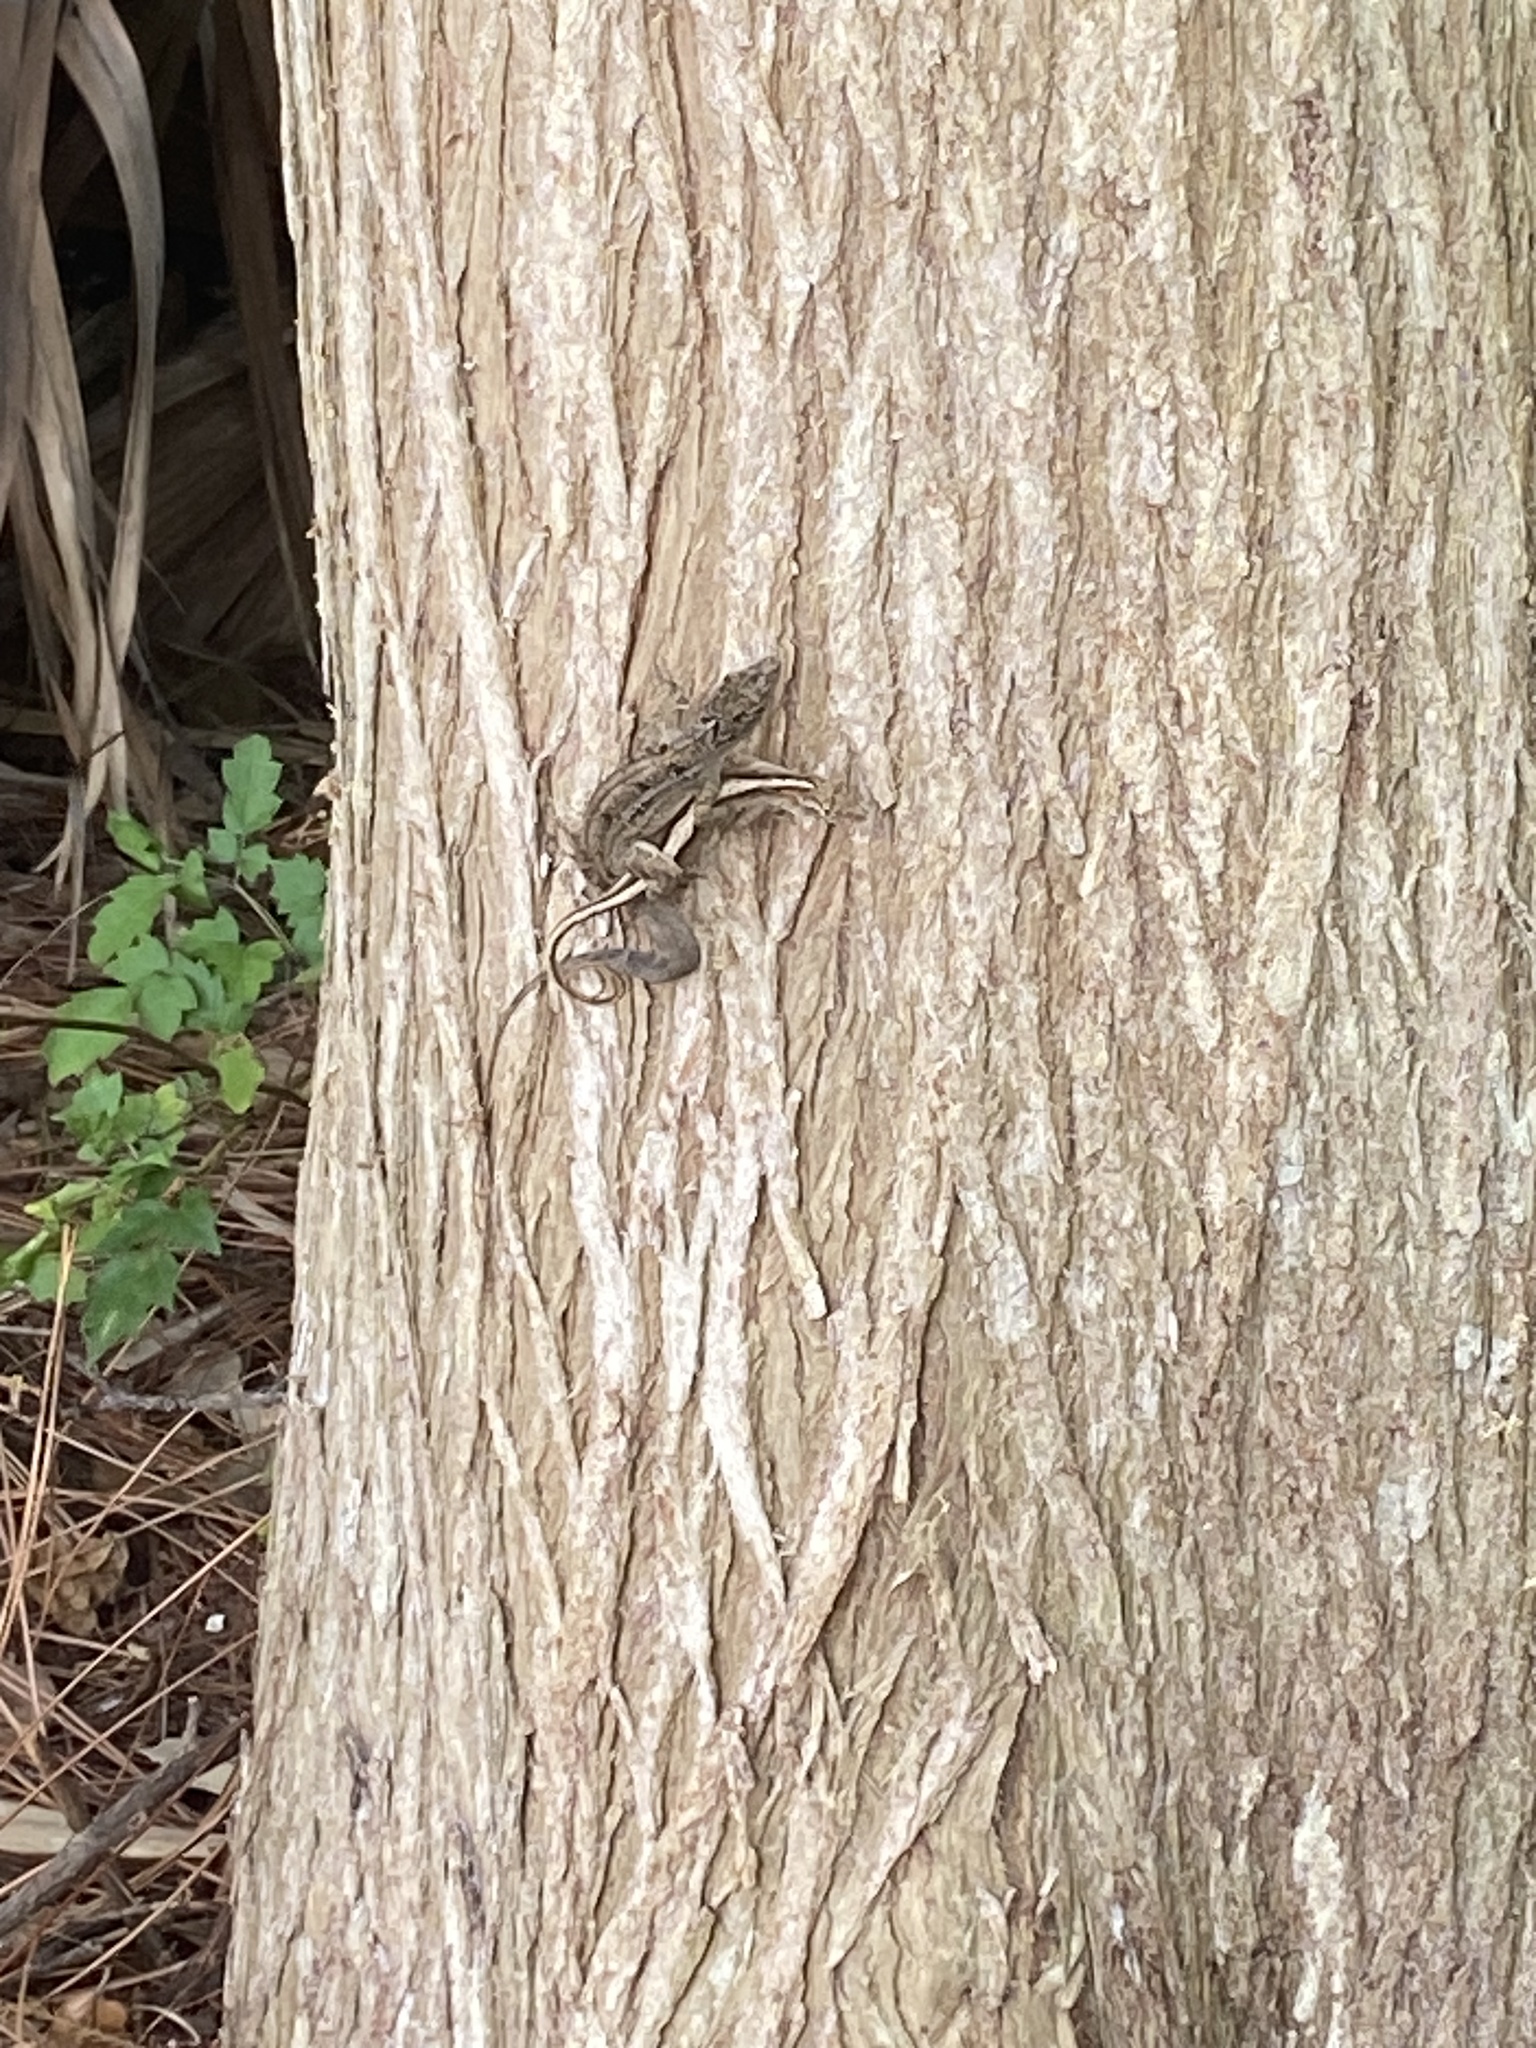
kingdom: Animalia
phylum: Chordata
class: Squamata
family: Dactyloidae
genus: Anolis
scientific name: Anolis sagrei
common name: Brown anole
